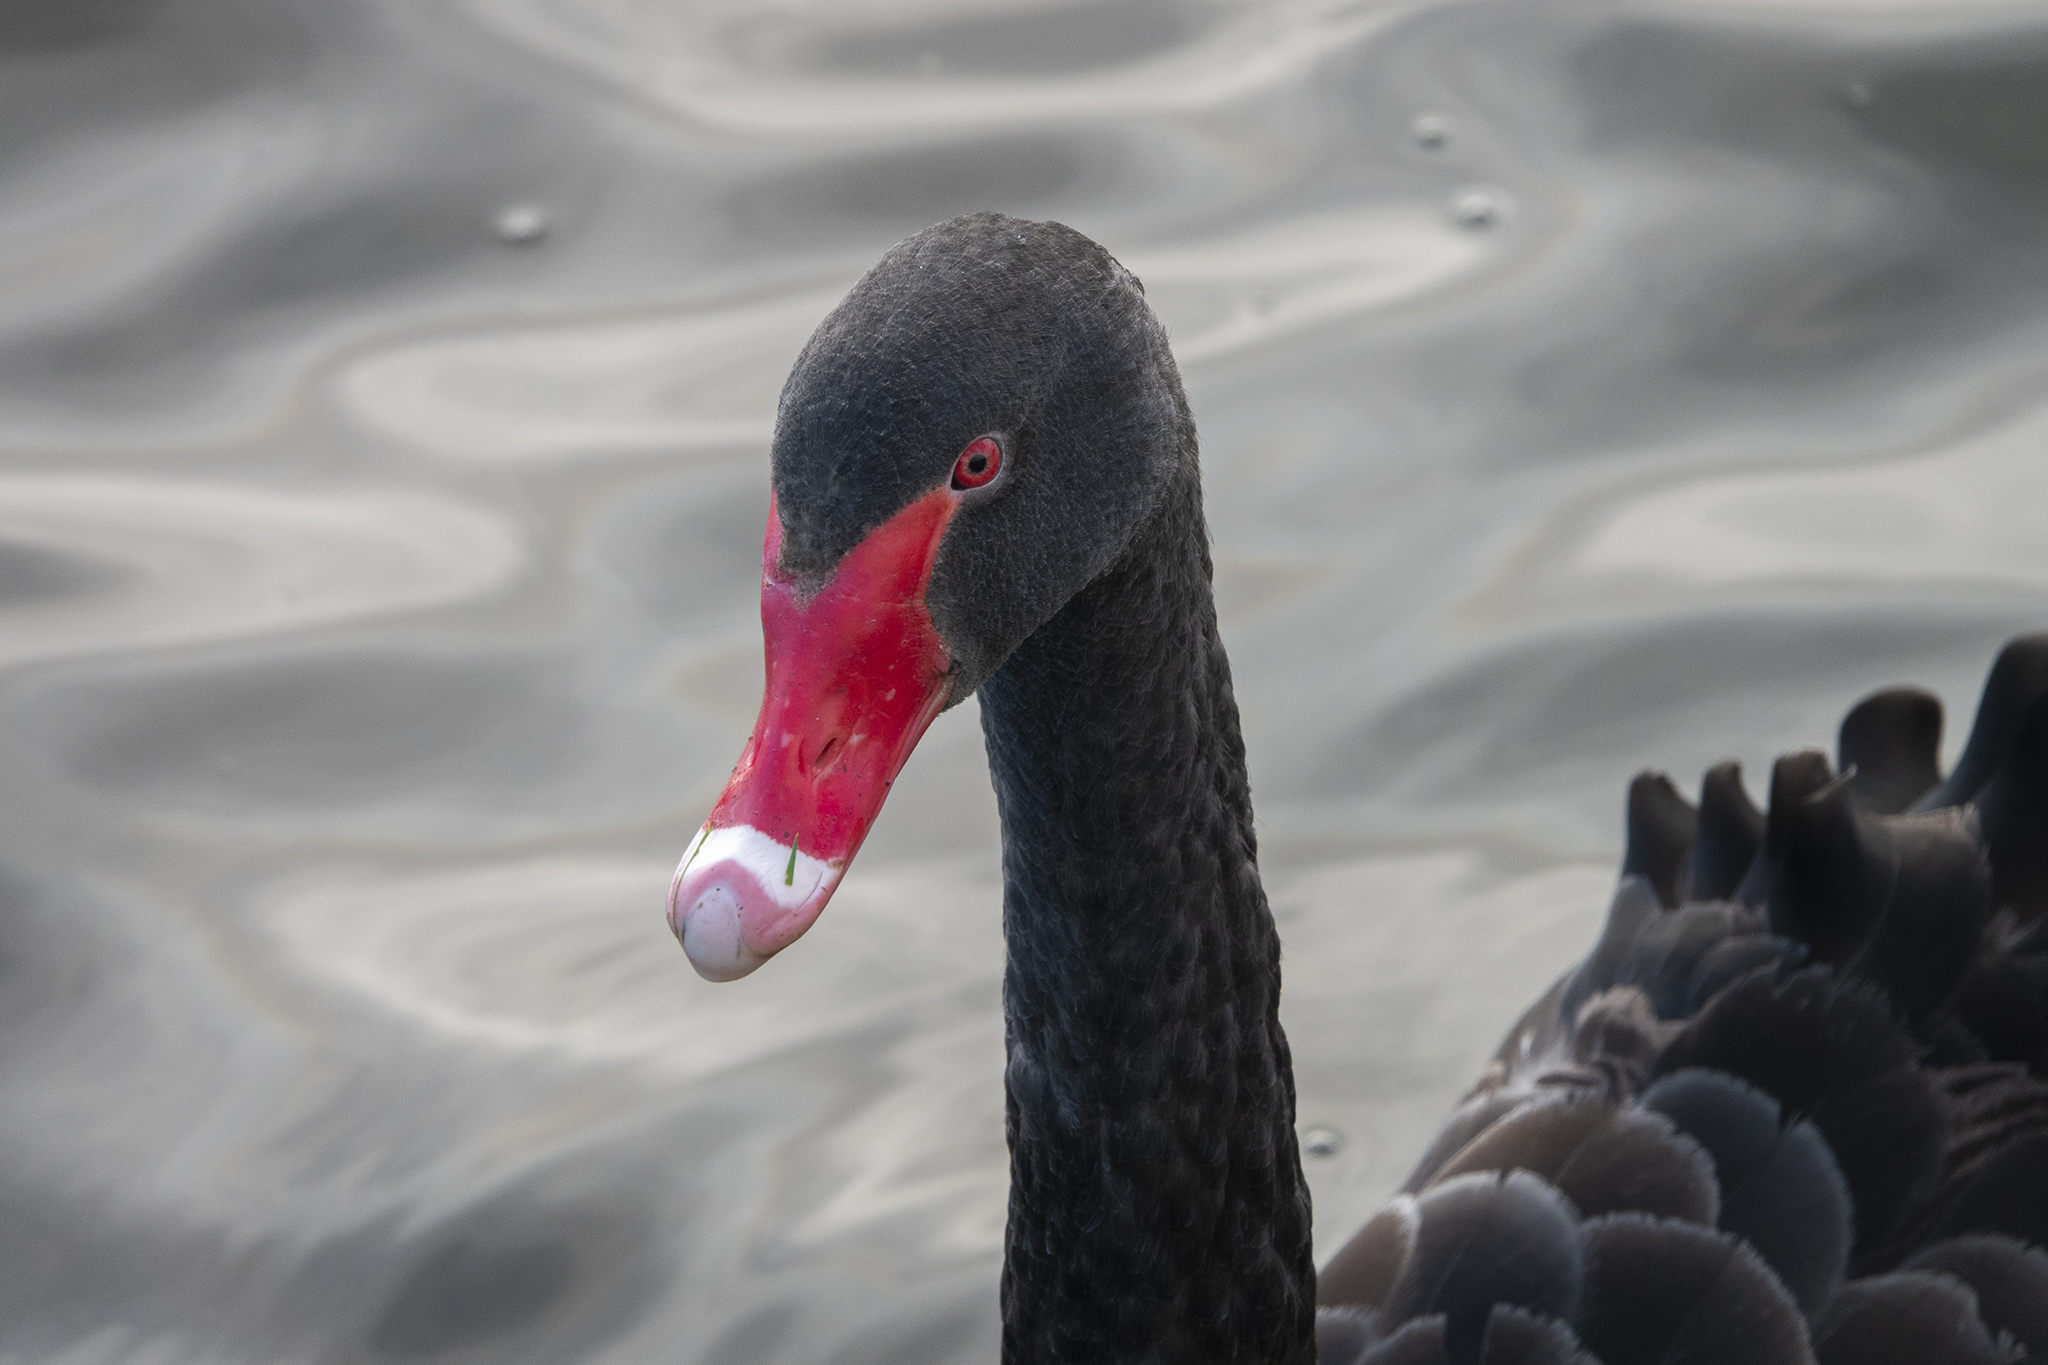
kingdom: Animalia
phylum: Chordata
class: Aves
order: Anseriformes
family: Anatidae
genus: Cygnus
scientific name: Cygnus atratus
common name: Black swan
